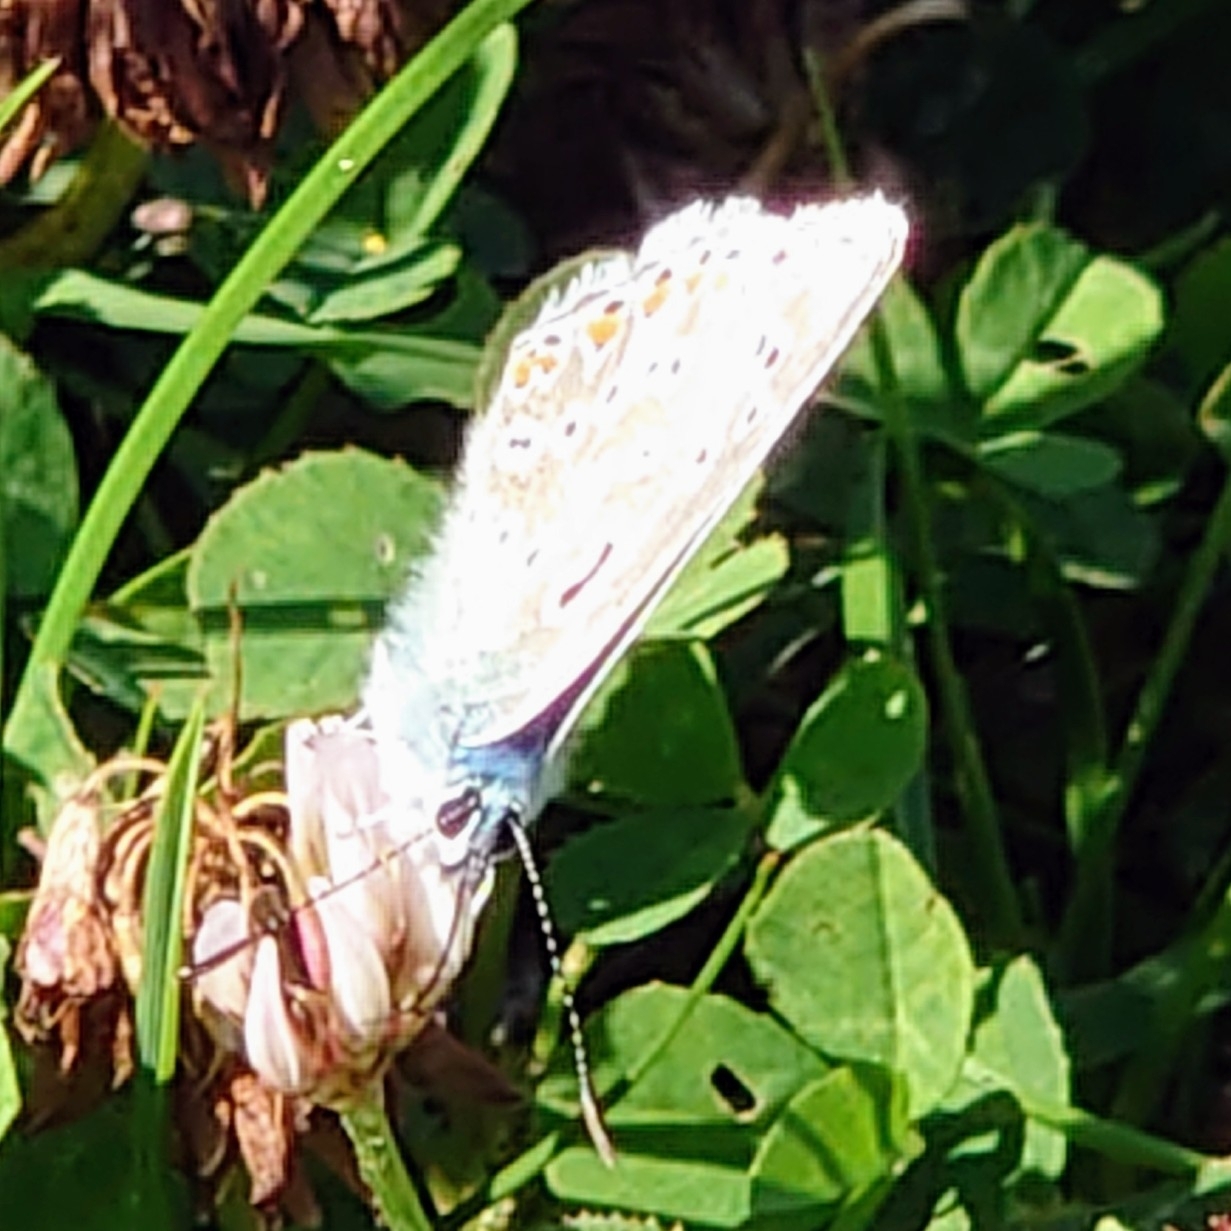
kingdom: Animalia
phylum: Arthropoda
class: Insecta
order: Lepidoptera
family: Lycaenidae
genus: Polyommatus
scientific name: Polyommatus icarus
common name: Common blue
